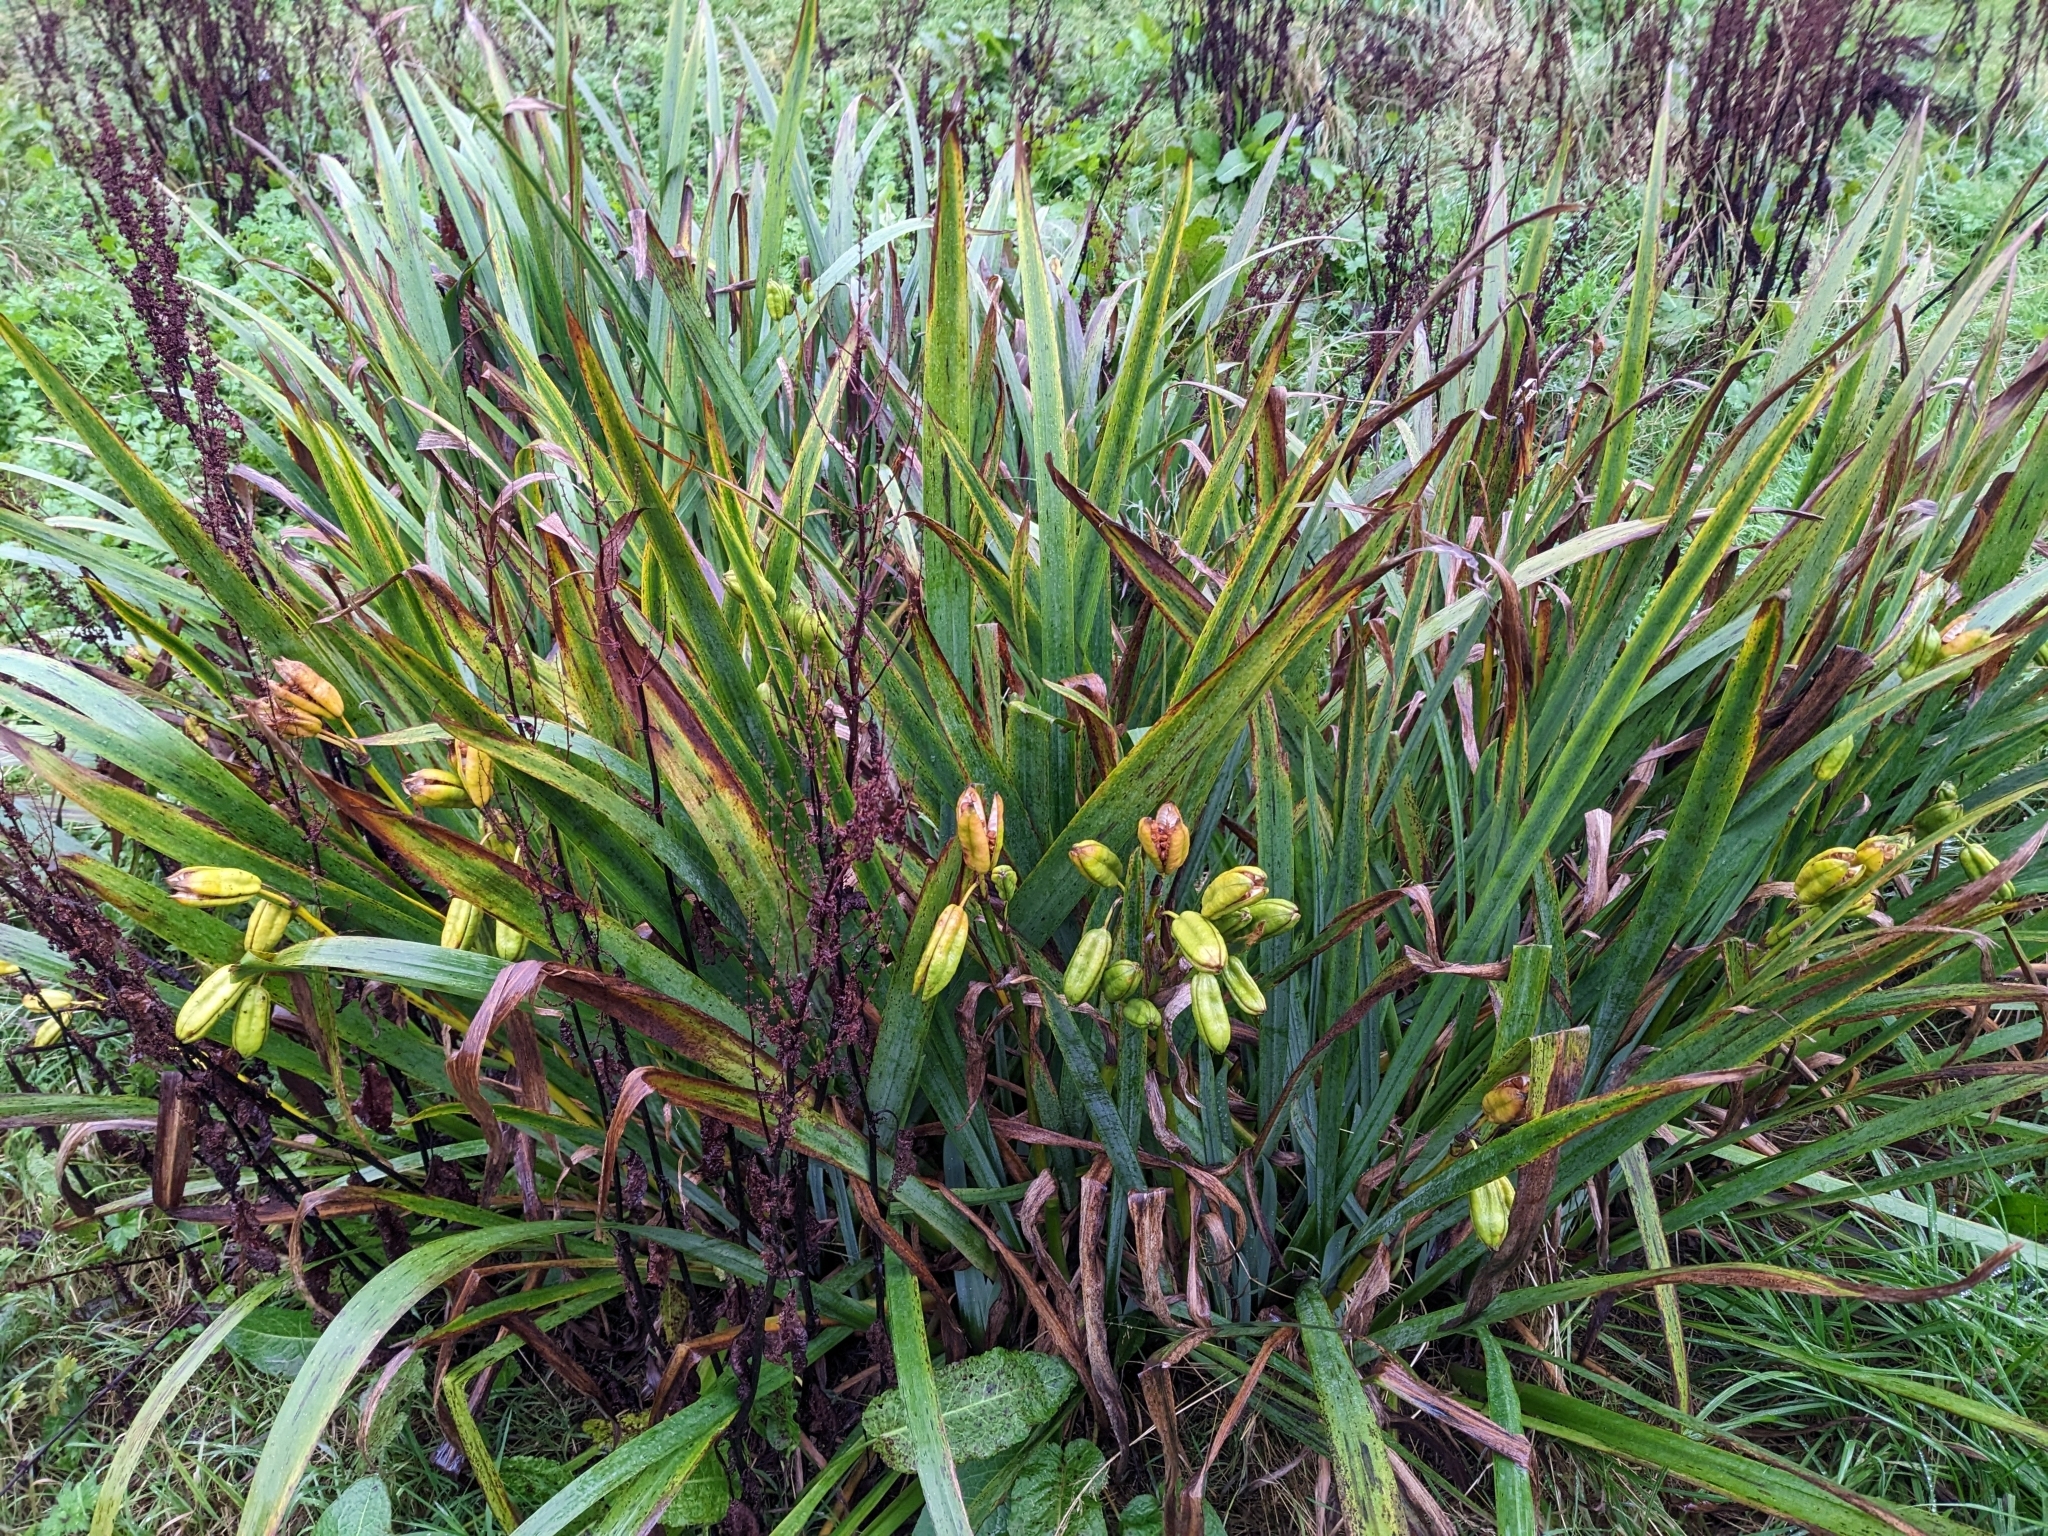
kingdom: Plantae
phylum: Tracheophyta
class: Liliopsida
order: Asparagales
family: Iridaceae
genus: Iris
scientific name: Iris pseudacorus
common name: Yellow flag
